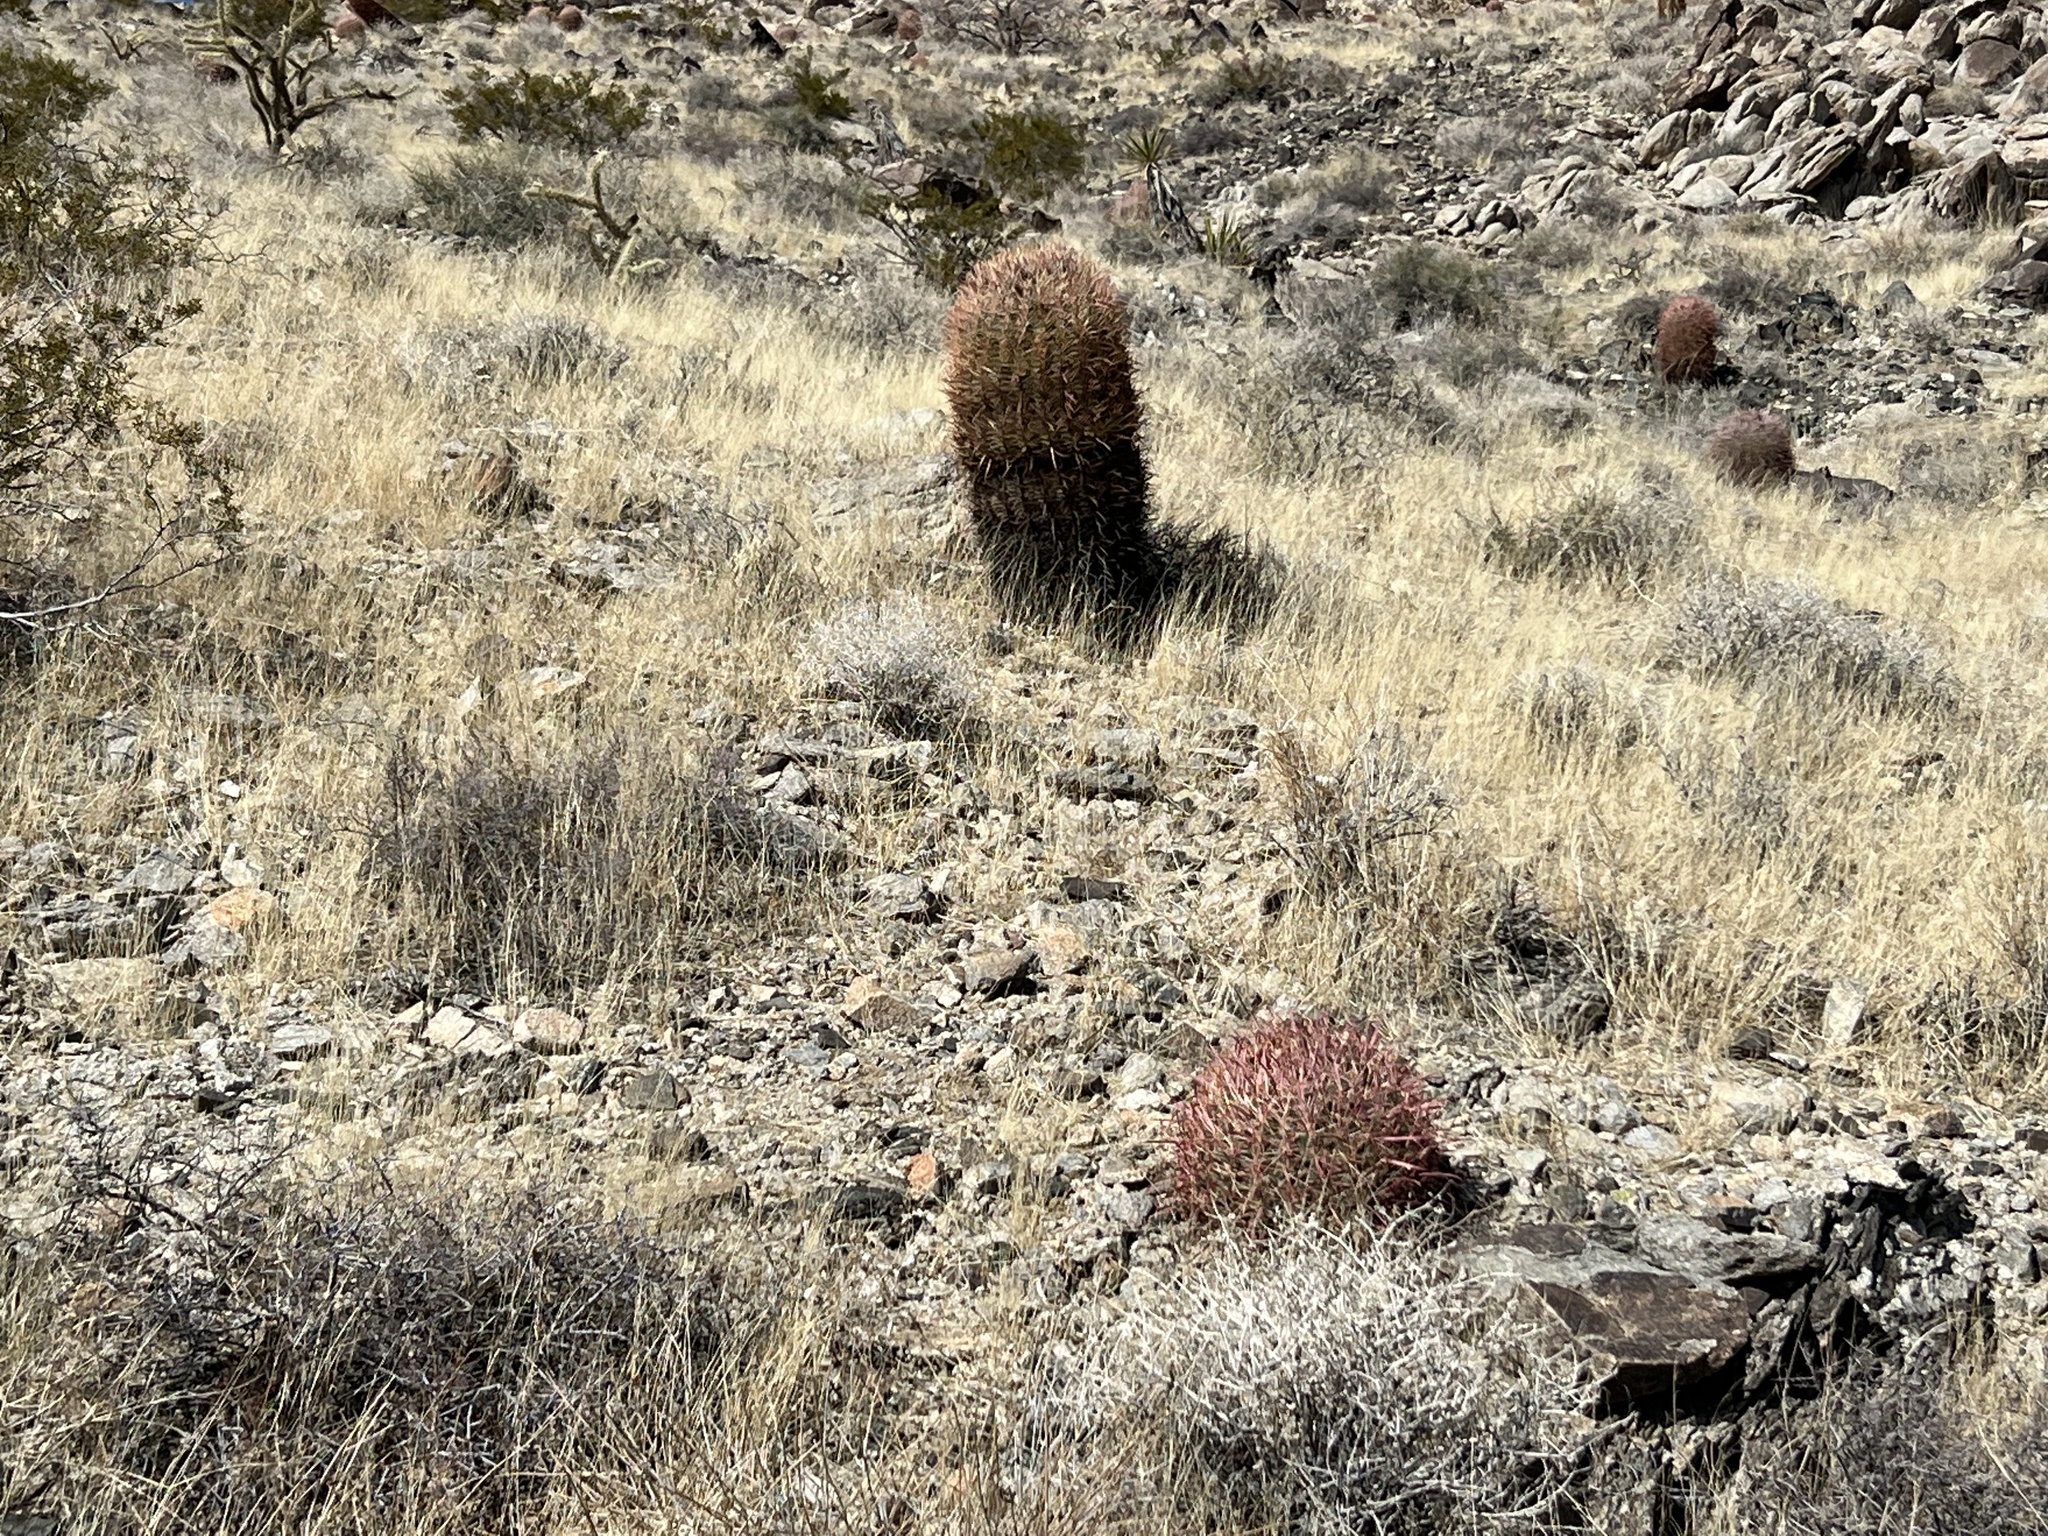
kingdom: Plantae
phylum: Tracheophyta
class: Magnoliopsida
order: Caryophyllales
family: Cactaceae
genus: Ferocactus
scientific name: Ferocactus cylindraceus
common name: California barrel cactus
